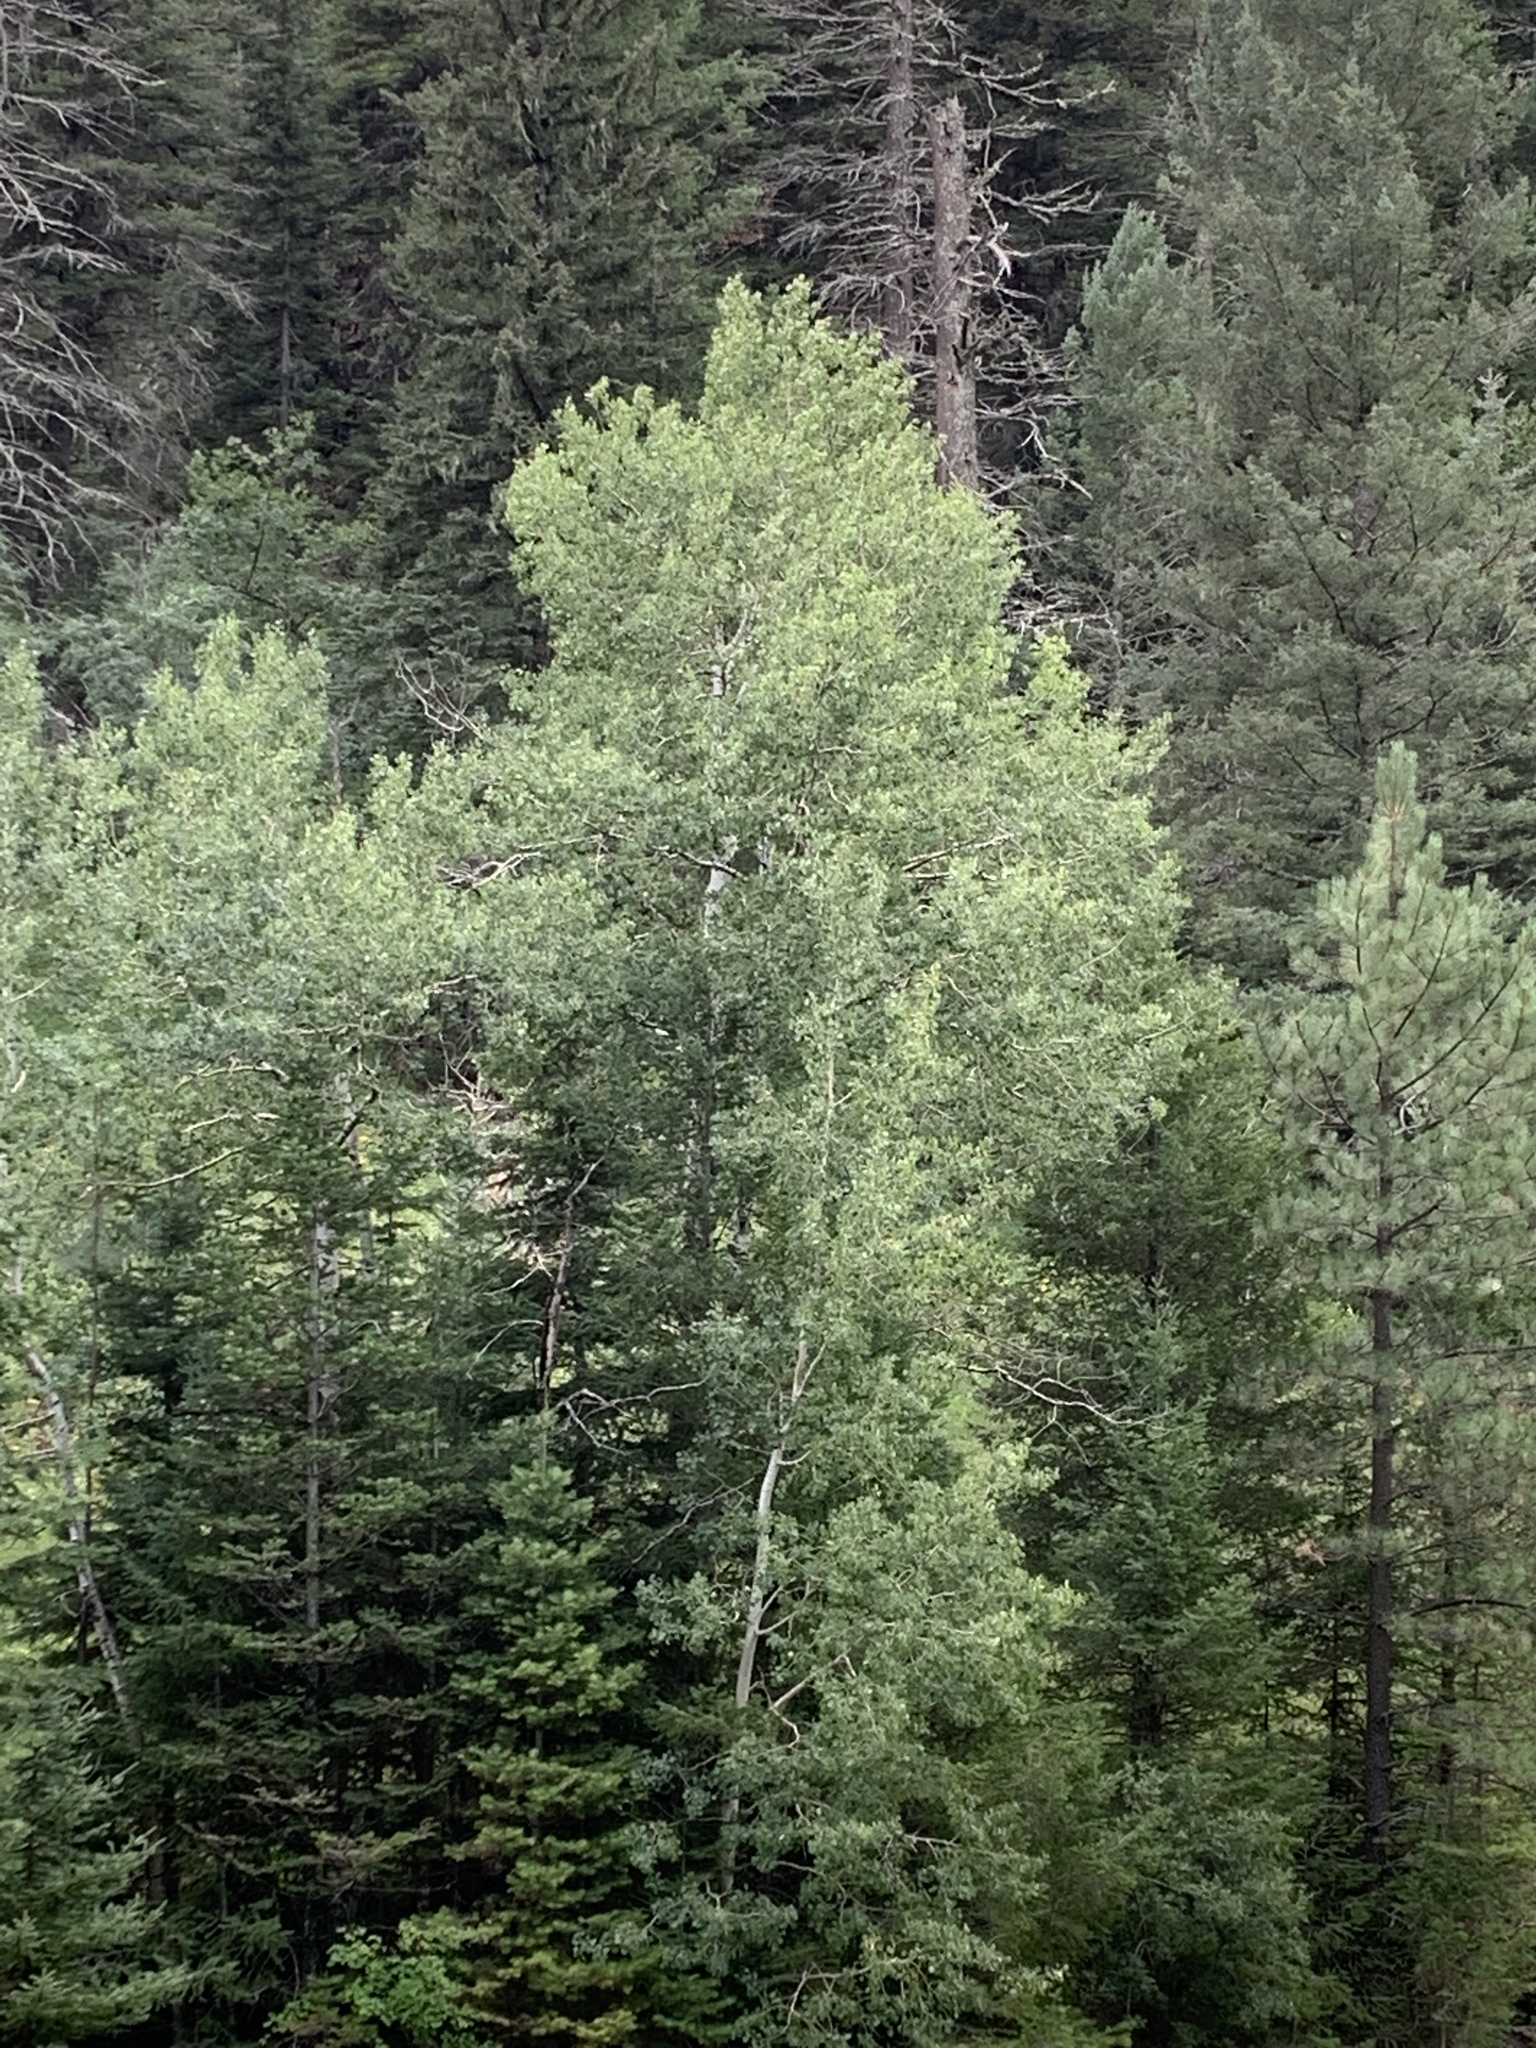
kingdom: Plantae
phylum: Tracheophyta
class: Magnoliopsida
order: Malpighiales
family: Salicaceae
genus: Populus
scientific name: Populus tremuloides
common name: Quaking aspen
